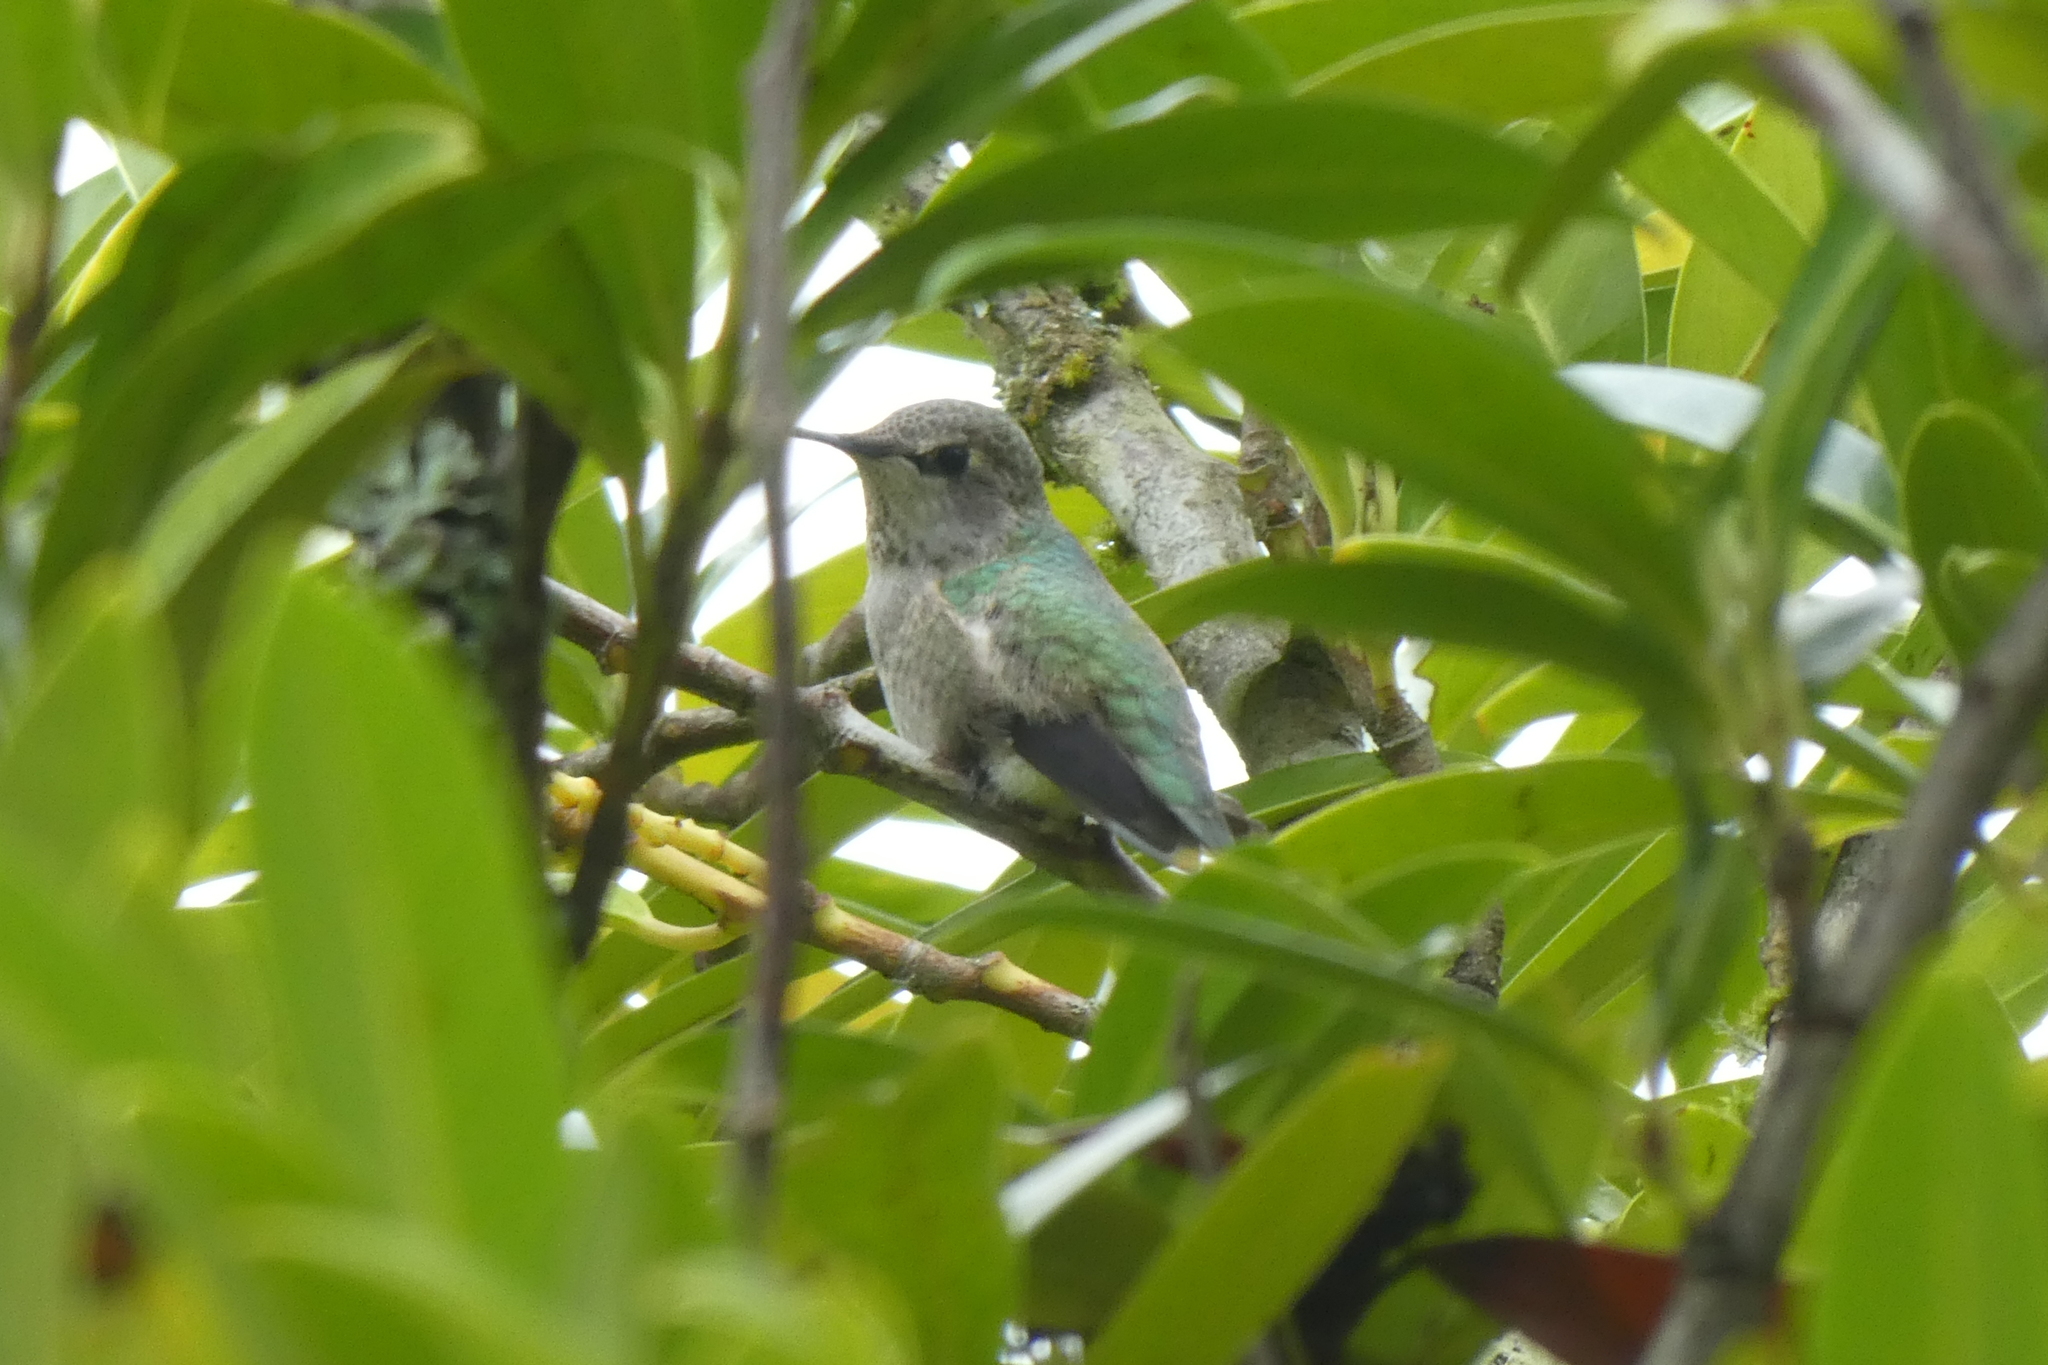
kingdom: Animalia
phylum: Chordata
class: Aves
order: Apodiformes
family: Trochilidae
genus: Calypte
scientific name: Calypte anna
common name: Anna's hummingbird
